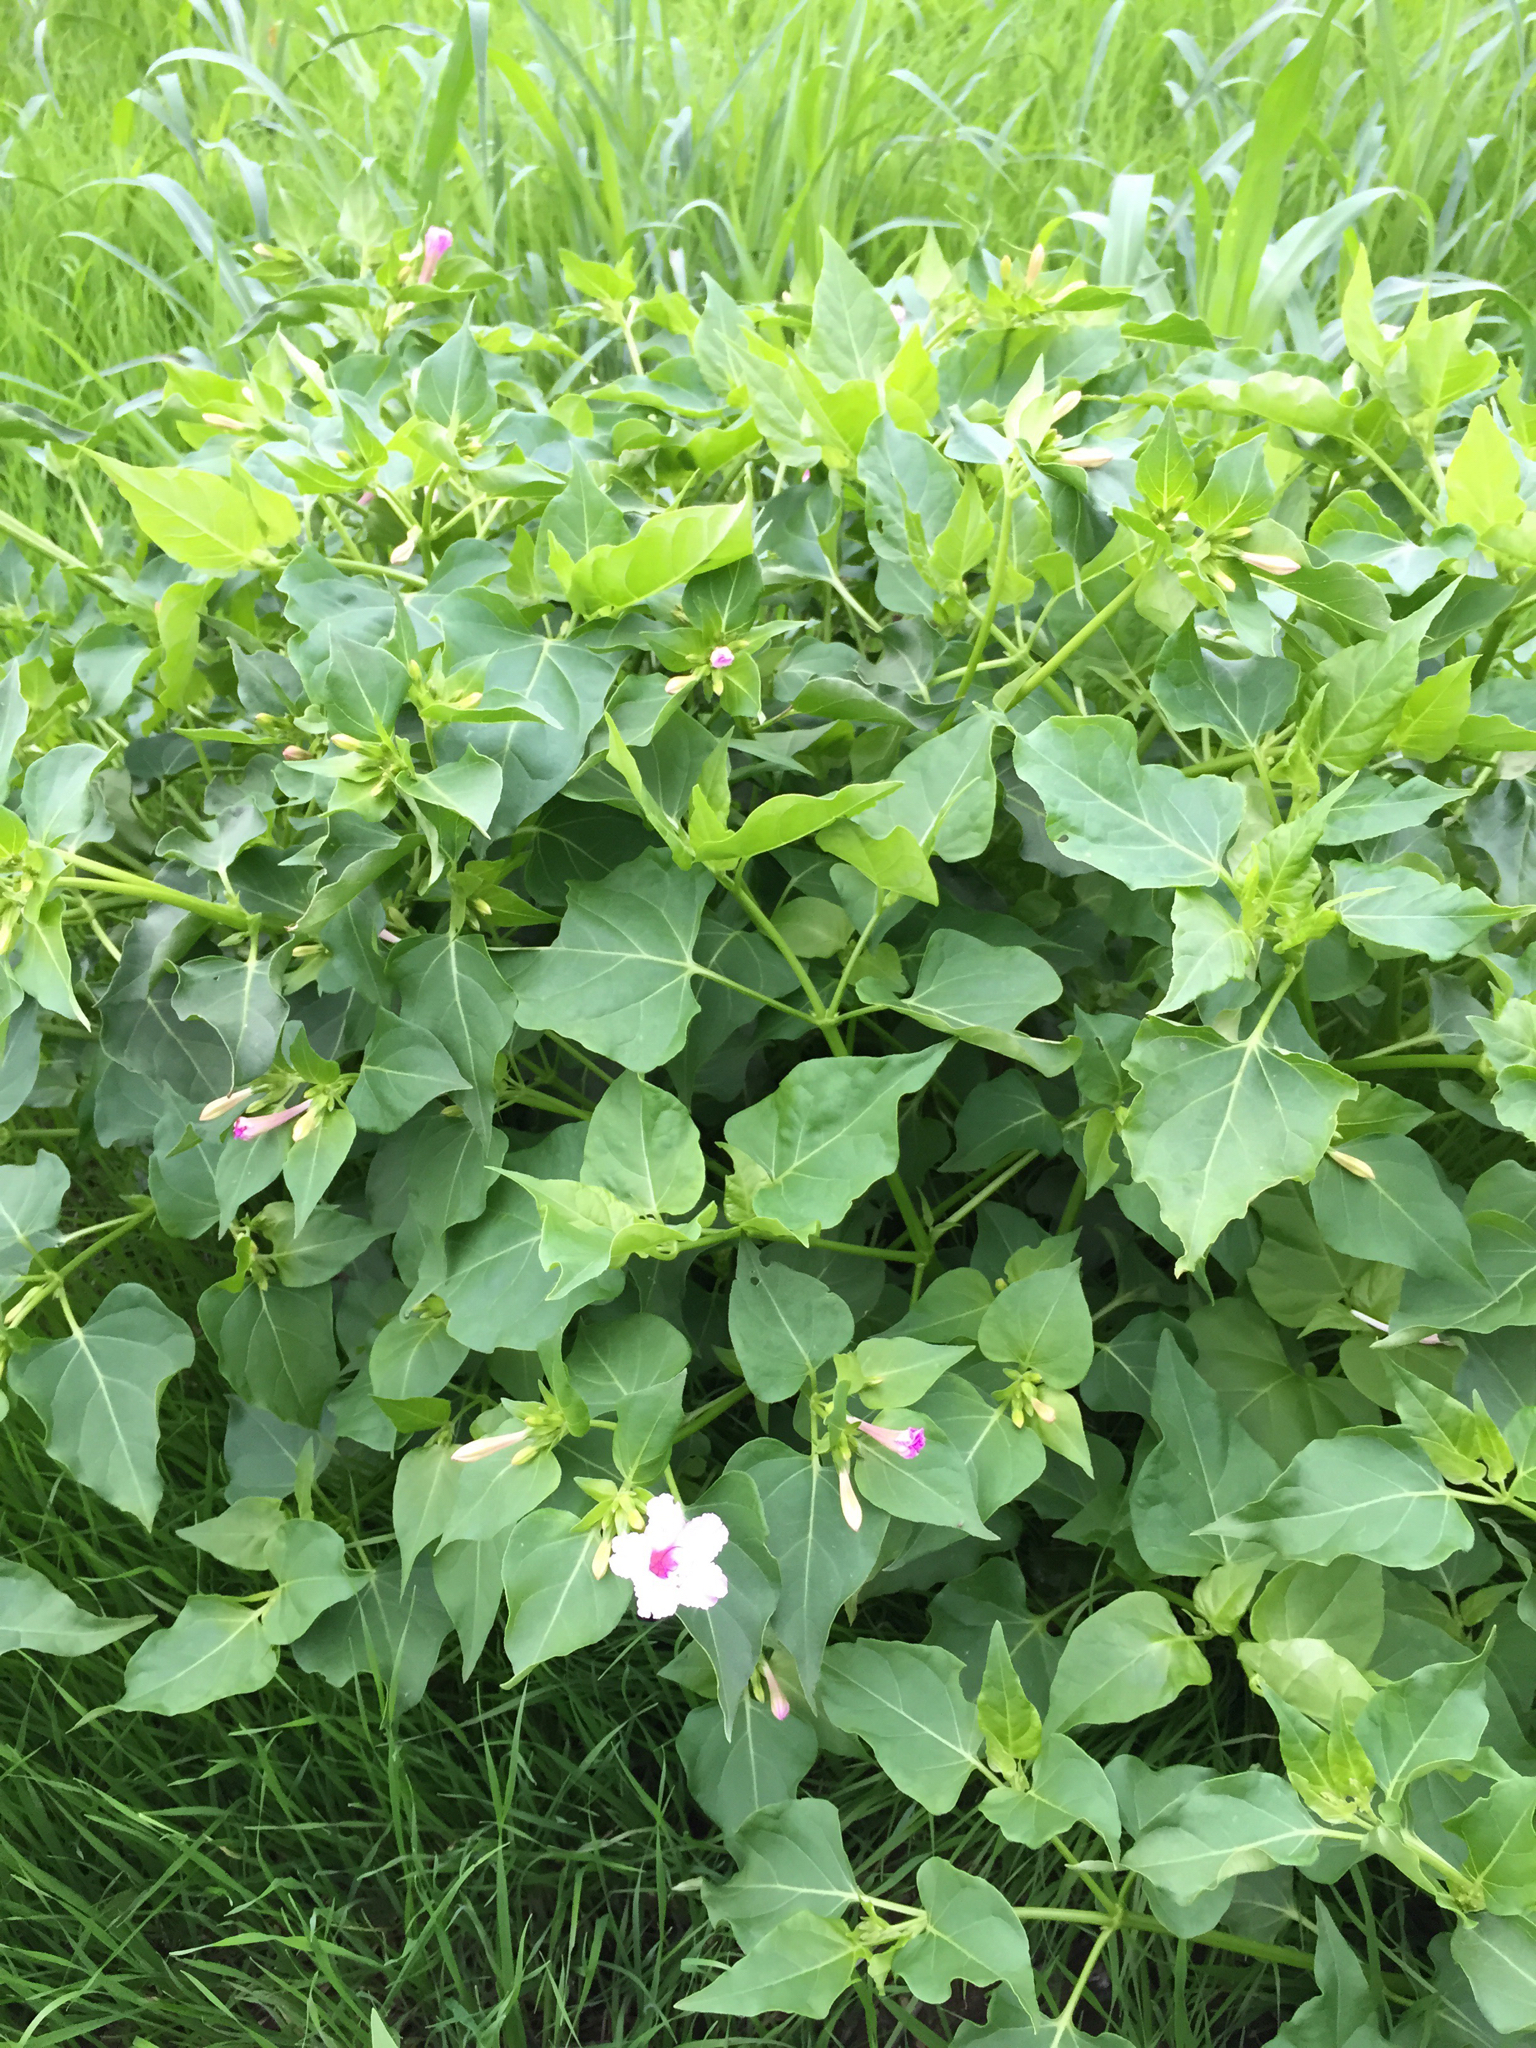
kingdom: Plantae
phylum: Tracheophyta
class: Magnoliopsida
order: Caryophyllales
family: Nyctaginaceae
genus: Mirabilis
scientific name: Mirabilis jalapa
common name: Marvel-of-peru
